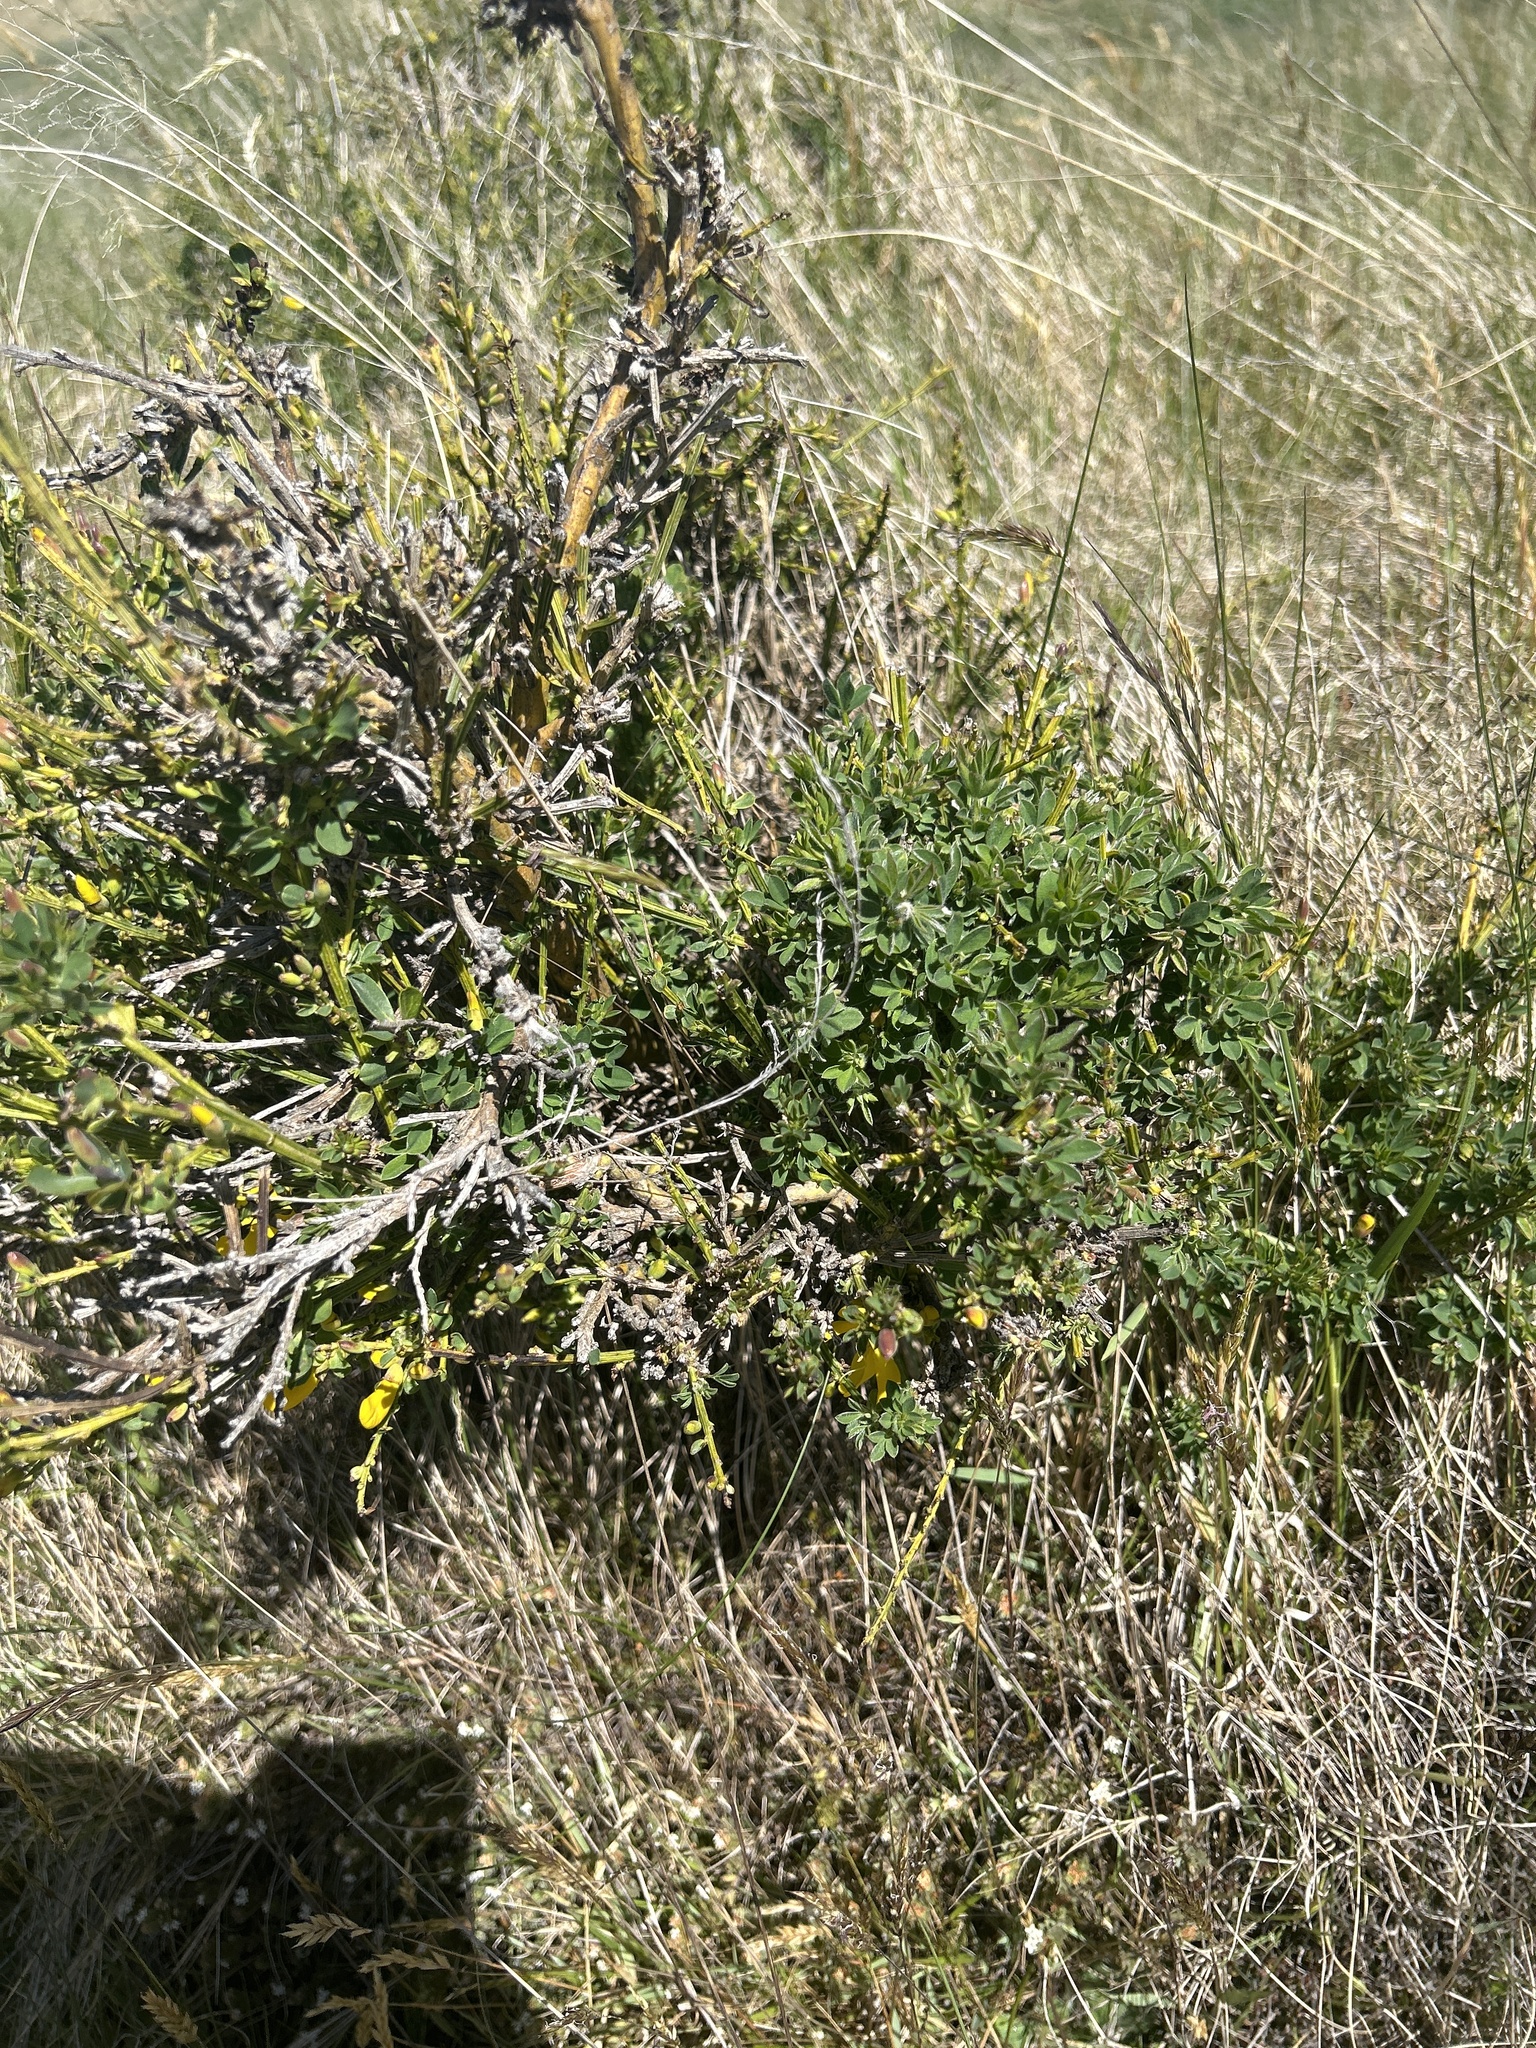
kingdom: Plantae
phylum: Tracheophyta
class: Magnoliopsida
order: Fabales
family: Fabaceae
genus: Cytisus
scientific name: Cytisus scoparius
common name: Scotch broom
